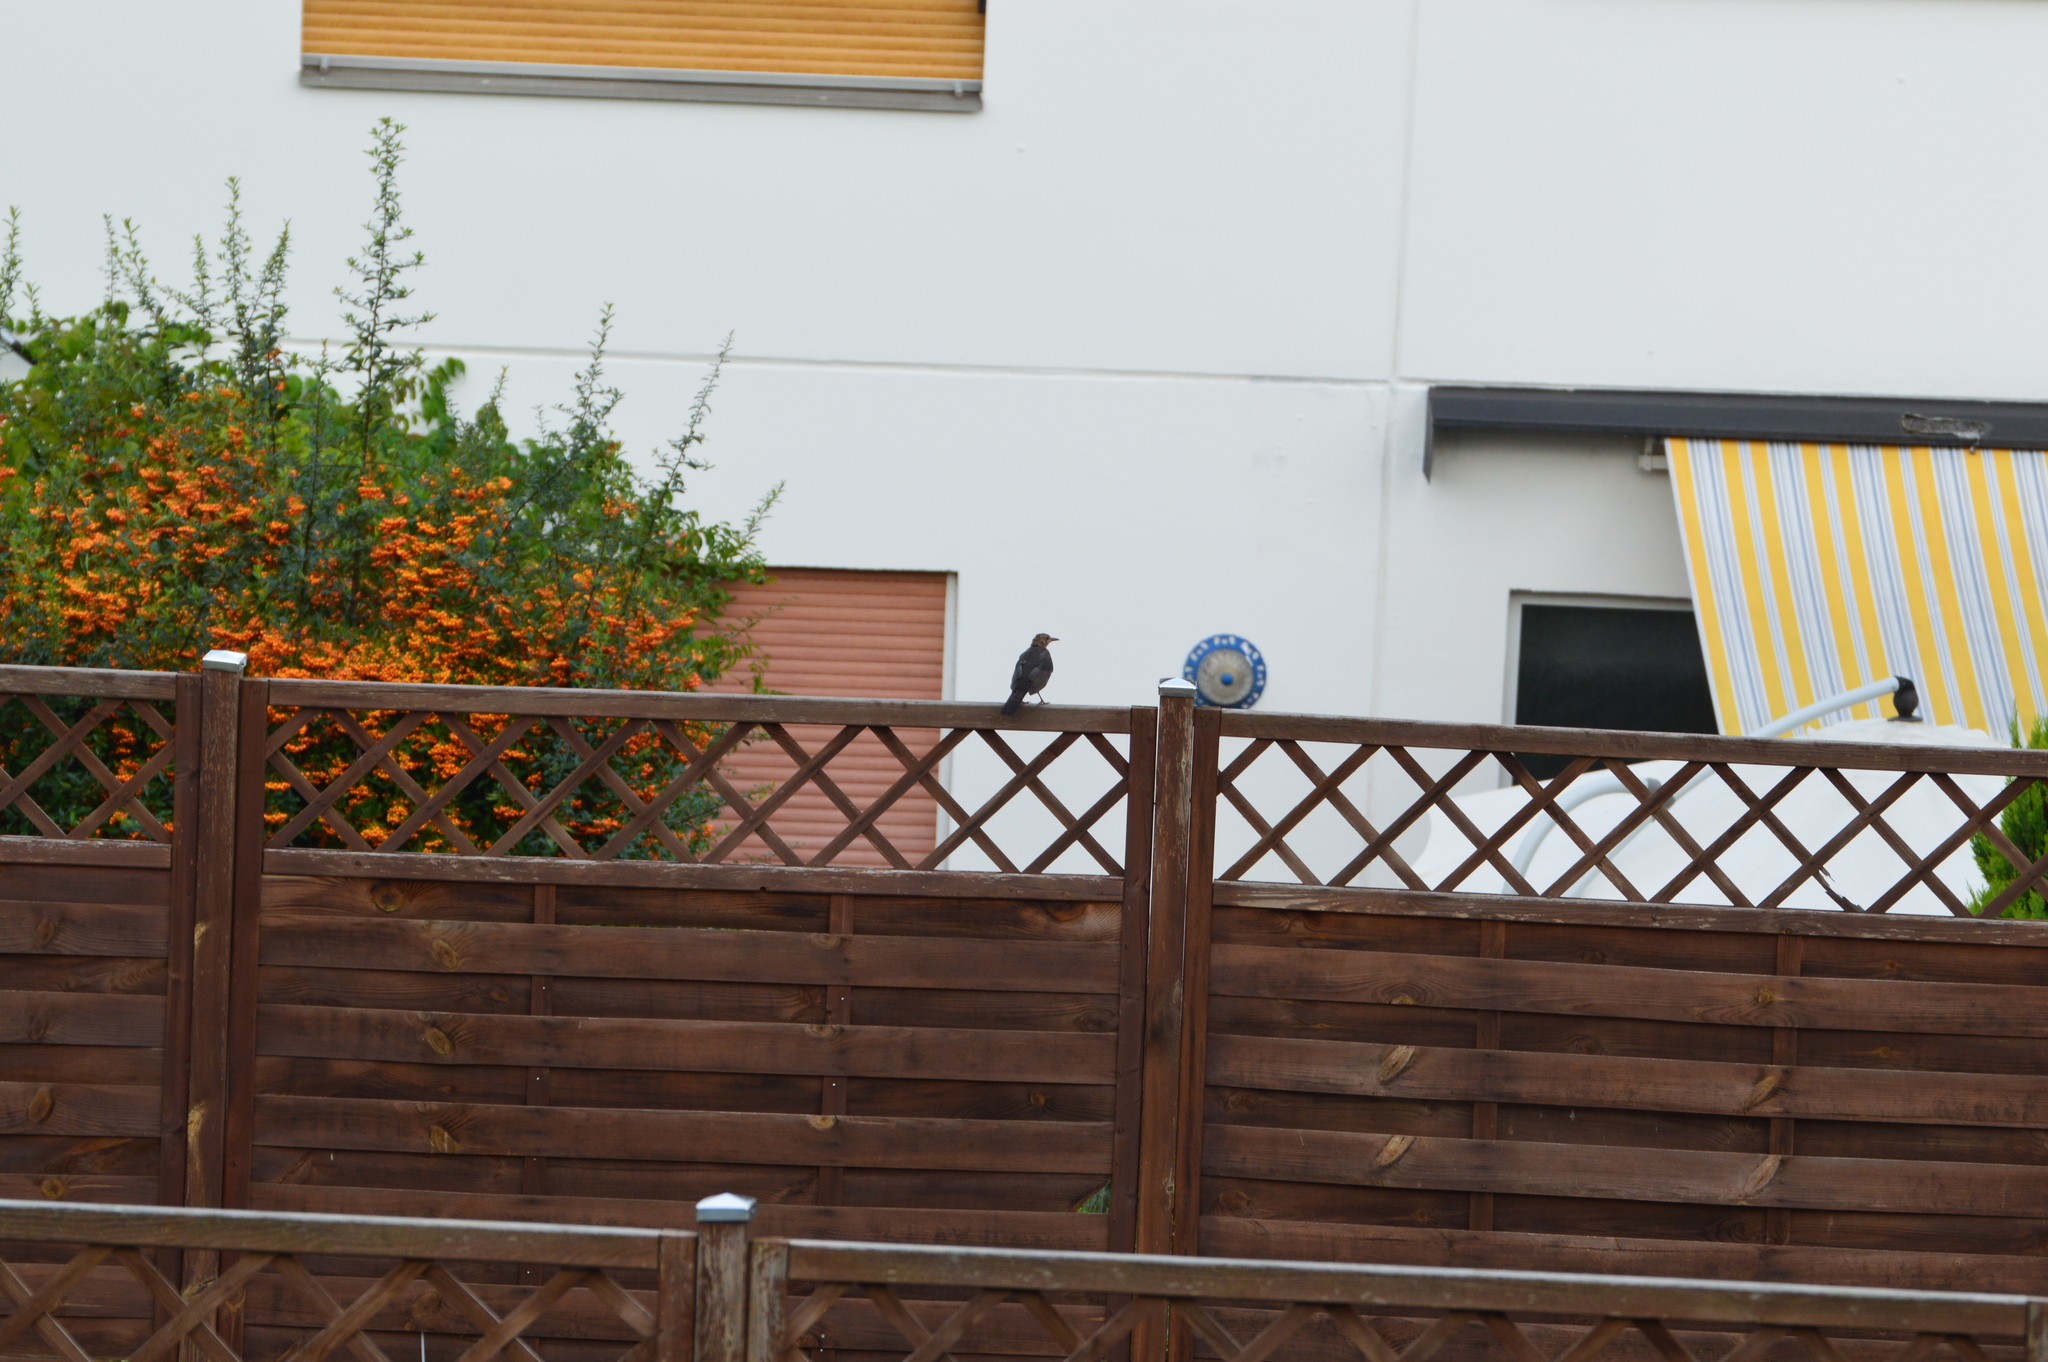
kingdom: Animalia
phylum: Chordata
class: Aves
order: Passeriformes
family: Turdidae
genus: Turdus
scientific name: Turdus merula
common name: Common blackbird
